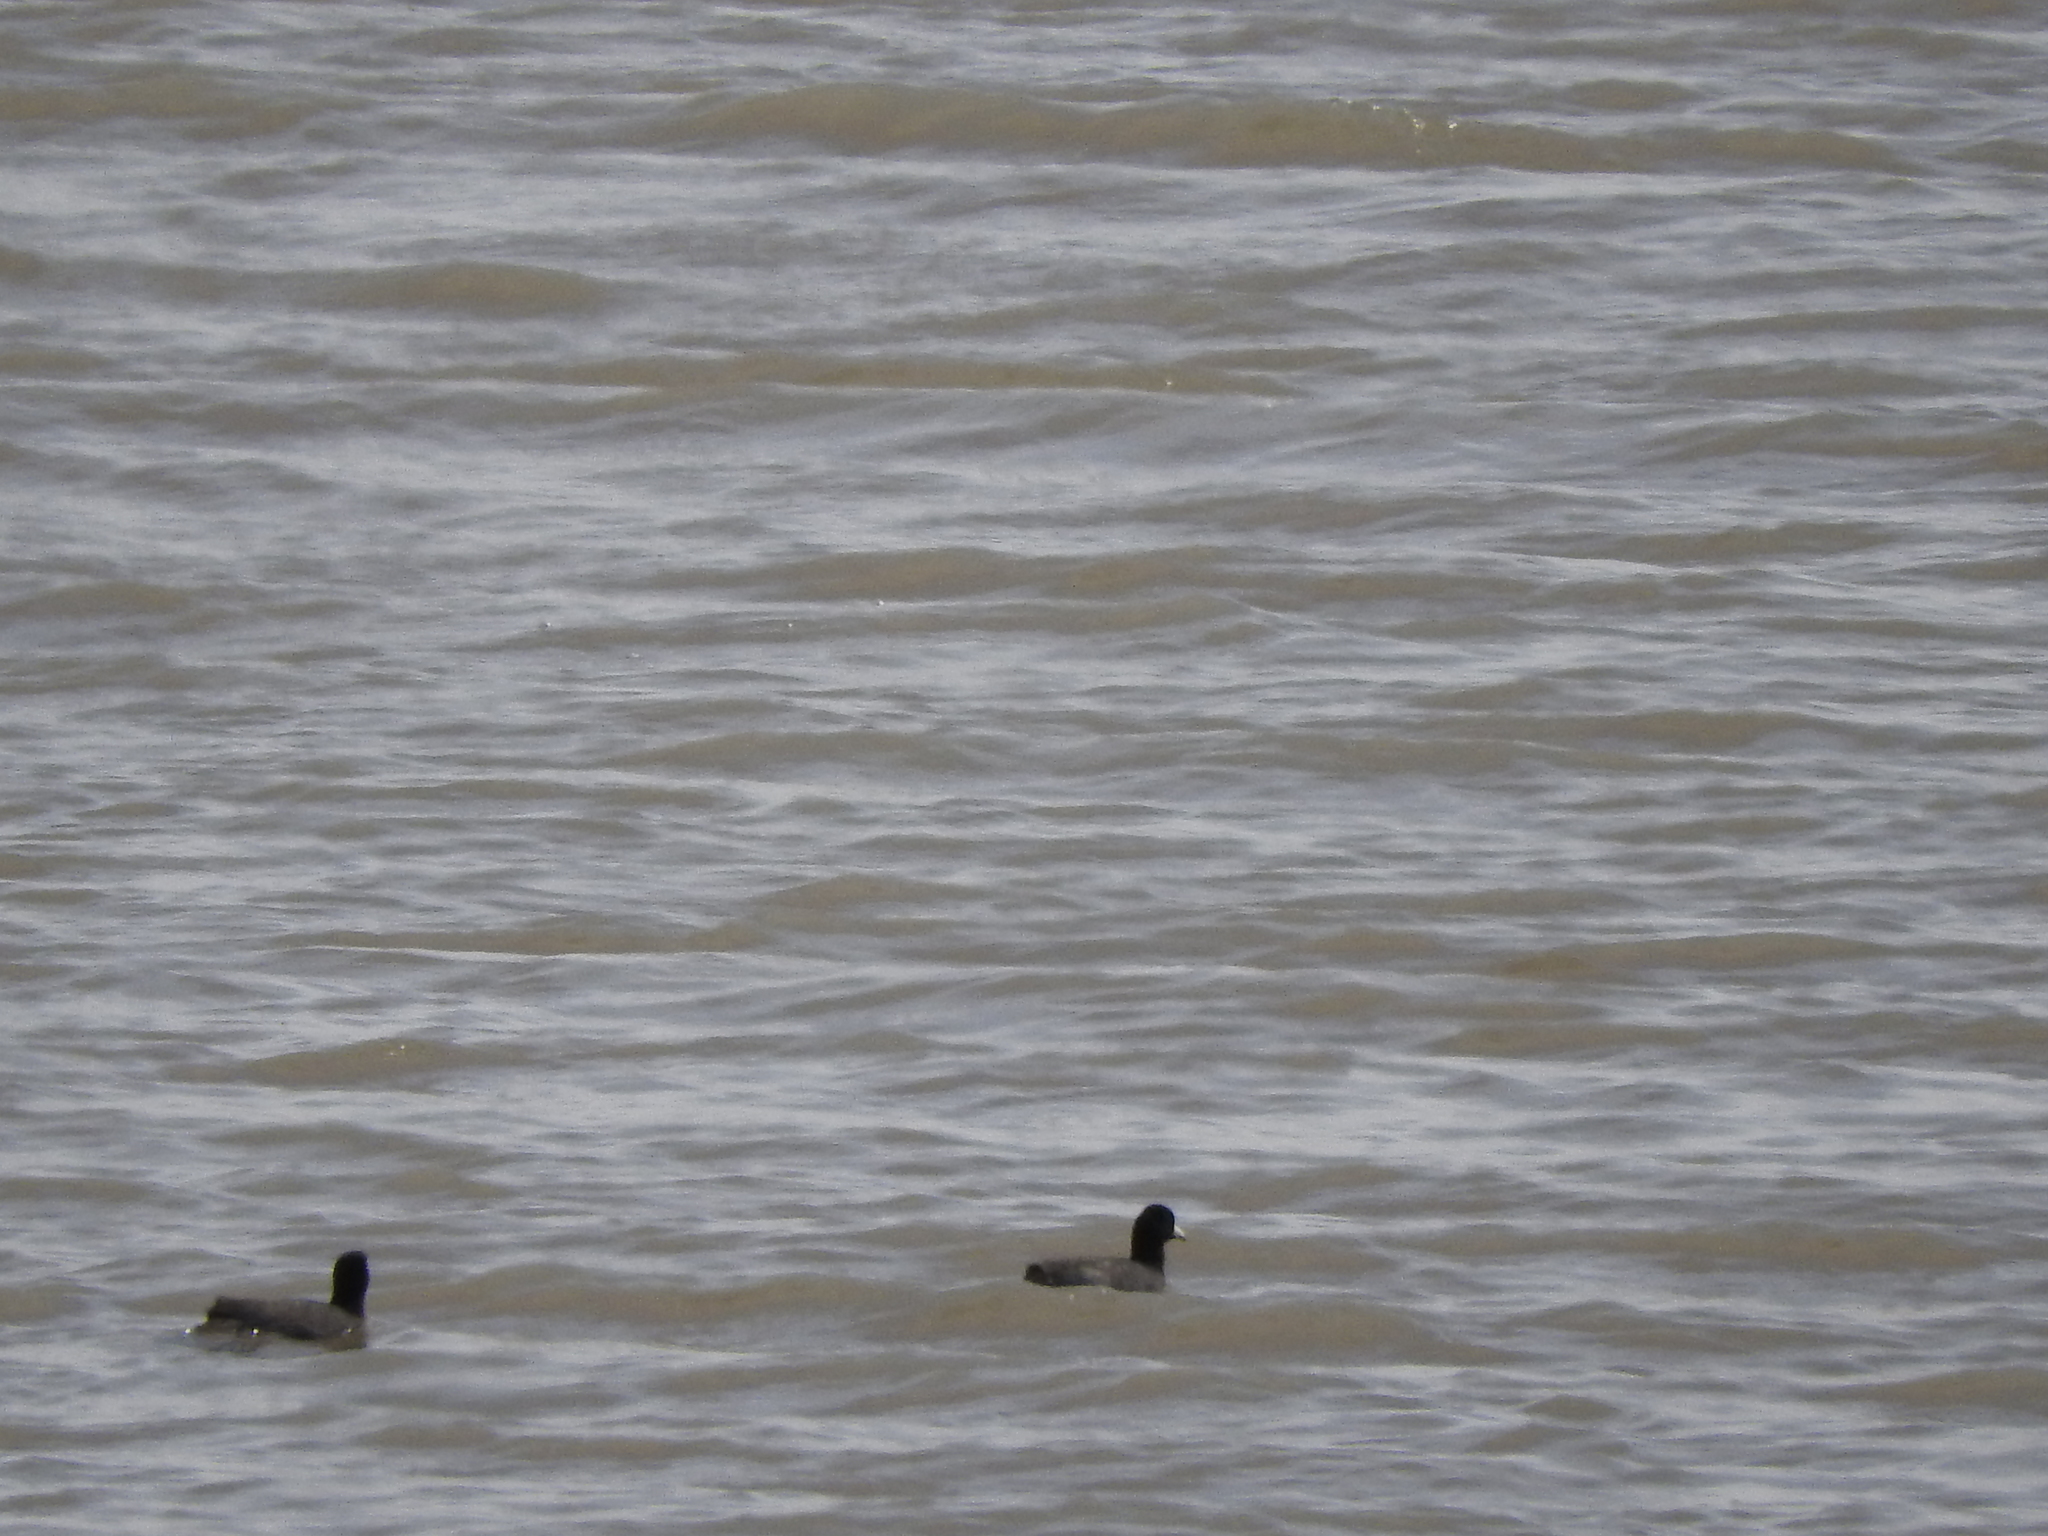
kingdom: Animalia
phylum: Chordata
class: Aves
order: Gruiformes
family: Rallidae
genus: Fulica
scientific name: Fulica americana
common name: American coot
